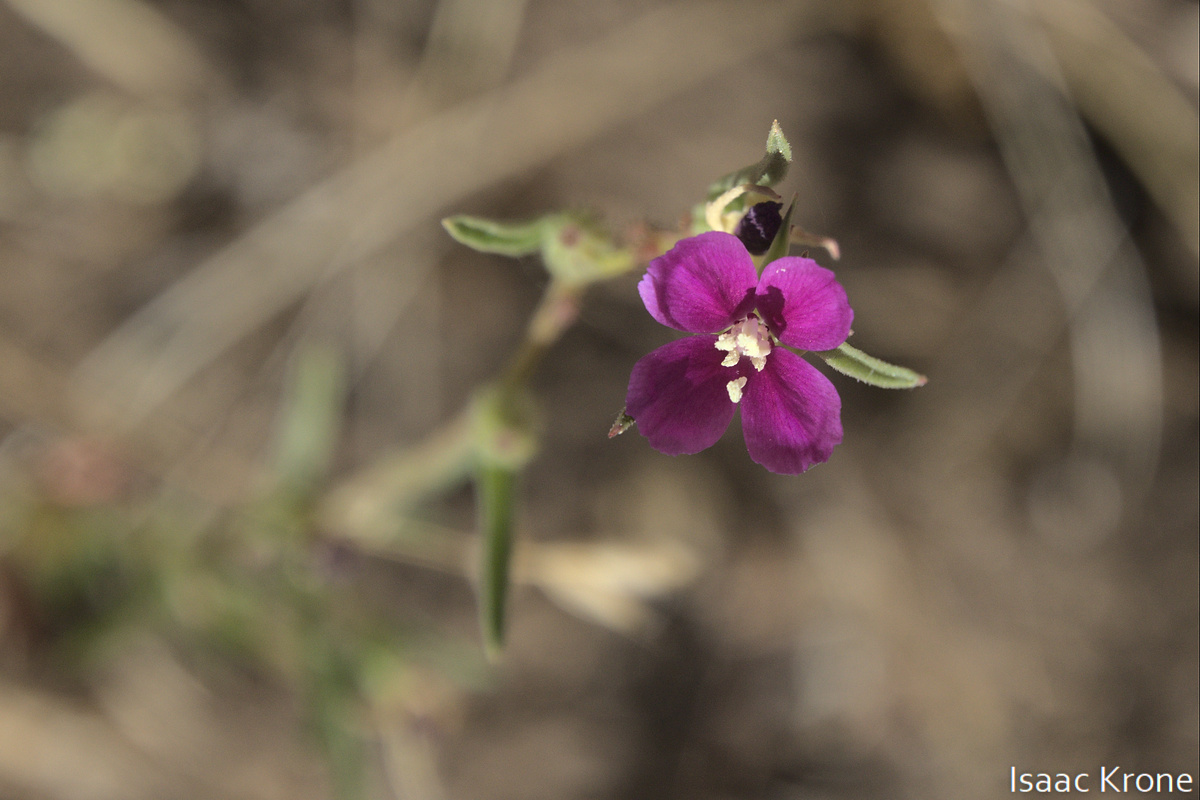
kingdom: Plantae
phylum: Tracheophyta
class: Magnoliopsida
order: Myrtales
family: Onagraceae
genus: Clarkia
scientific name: Clarkia purpurea
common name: Purple clarkia
